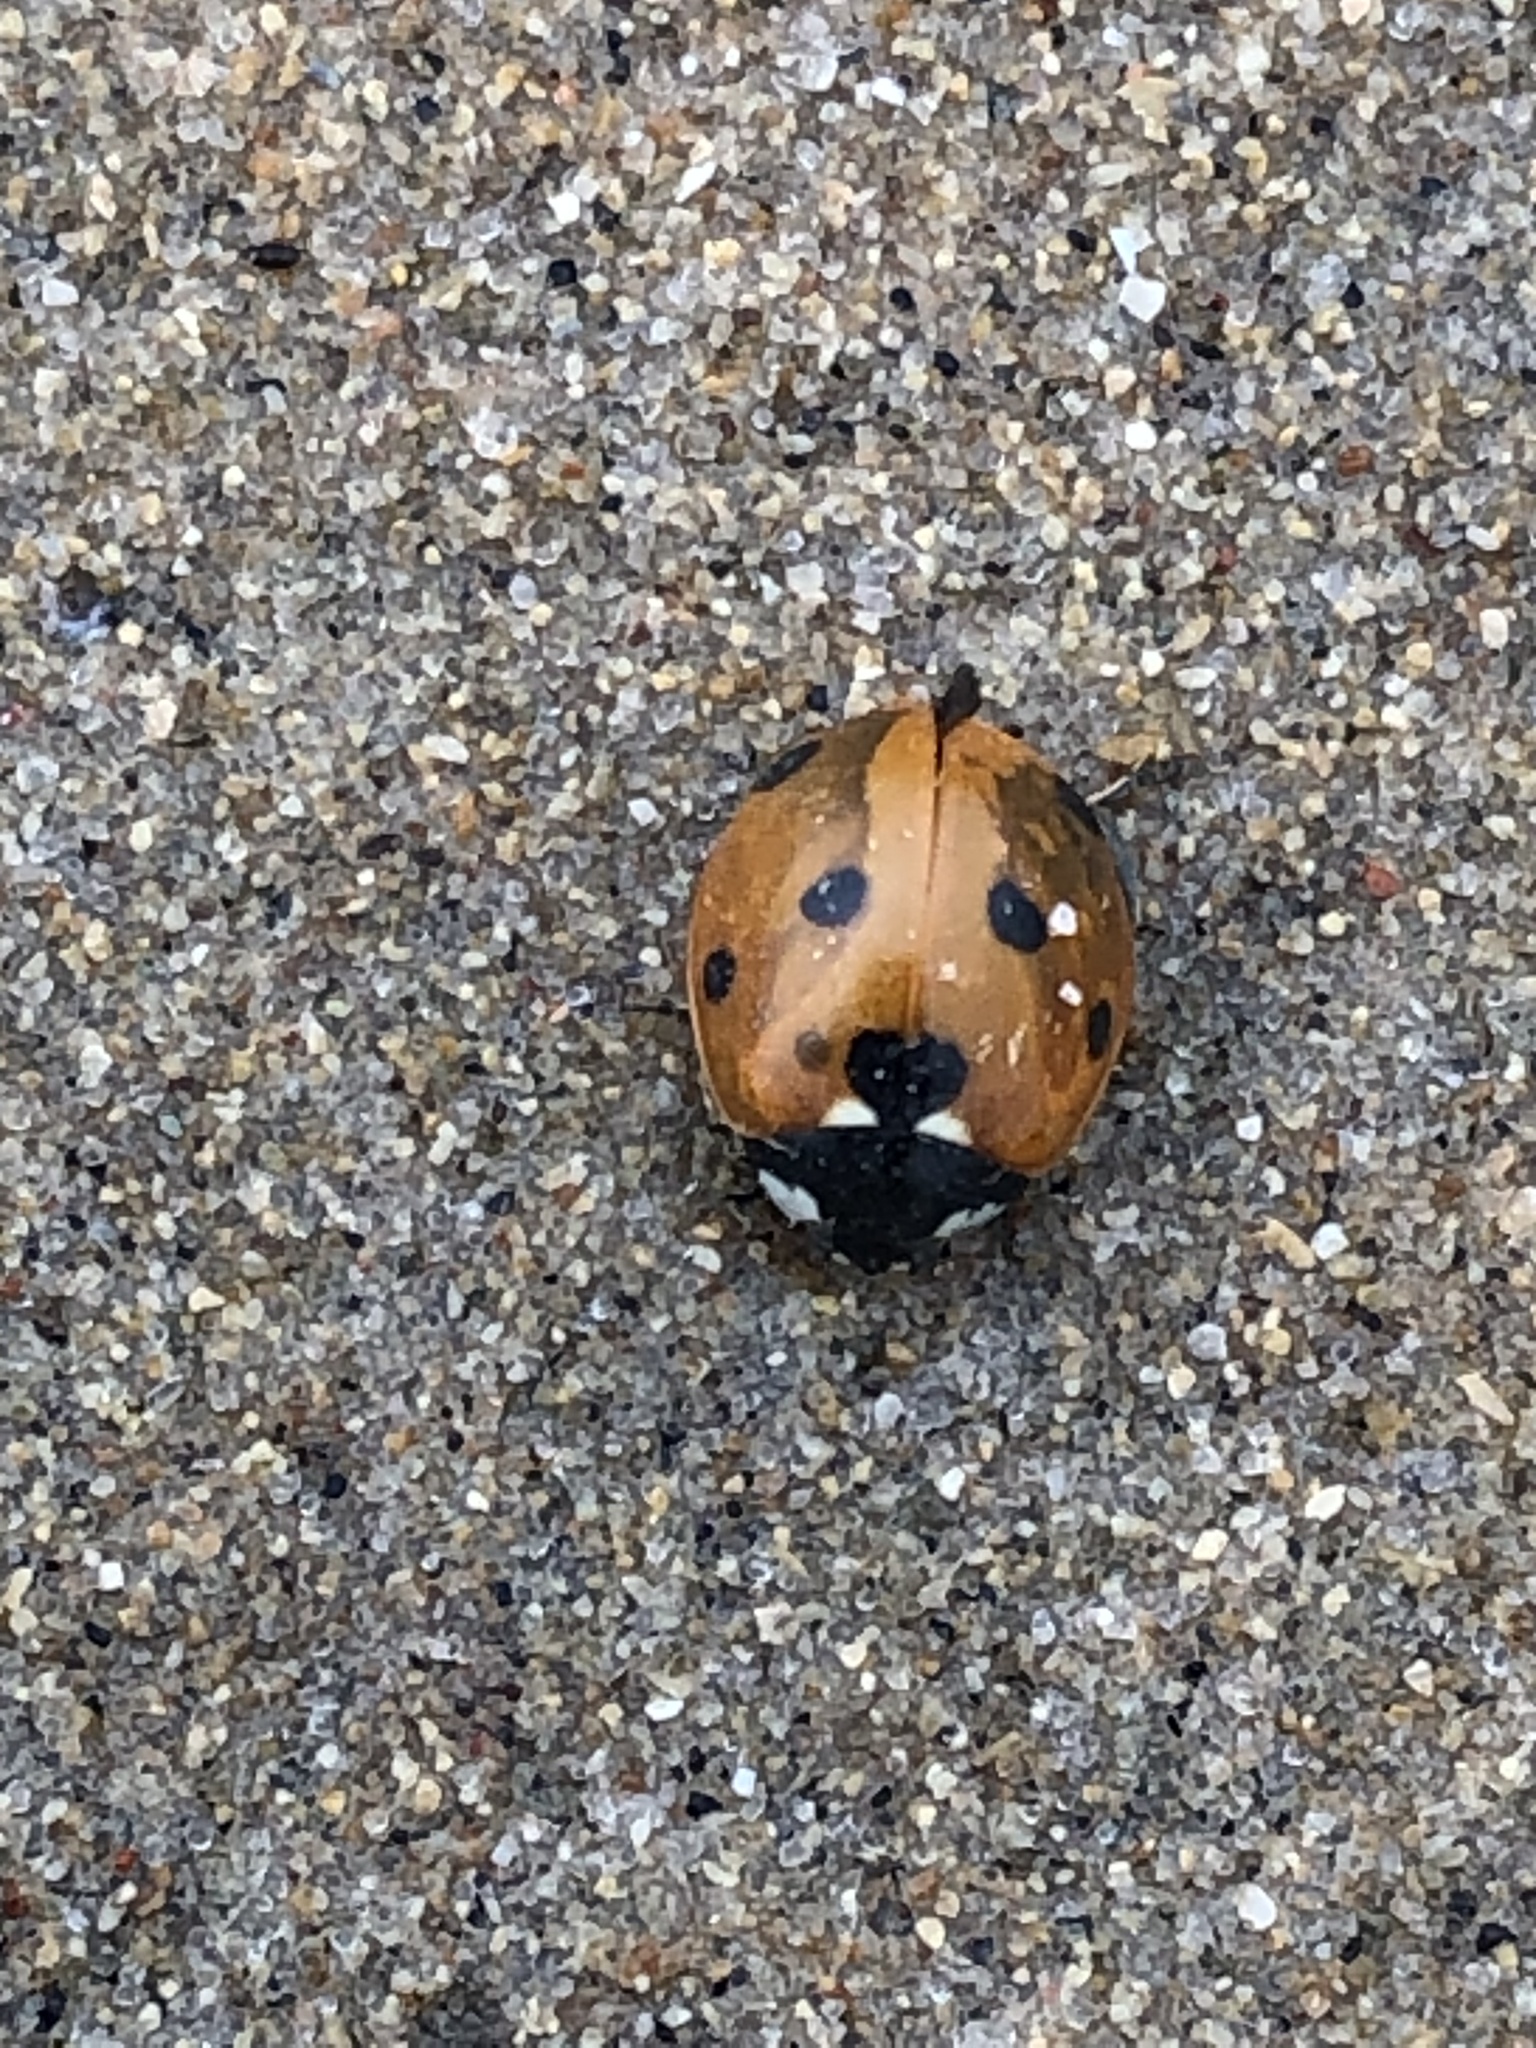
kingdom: Animalia
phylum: Arthropoda
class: Insecta
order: Coleoptera
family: Coccinellidae
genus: Coccinella
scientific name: Coccinella septempunctata
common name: Sevenspotted lady beetle
